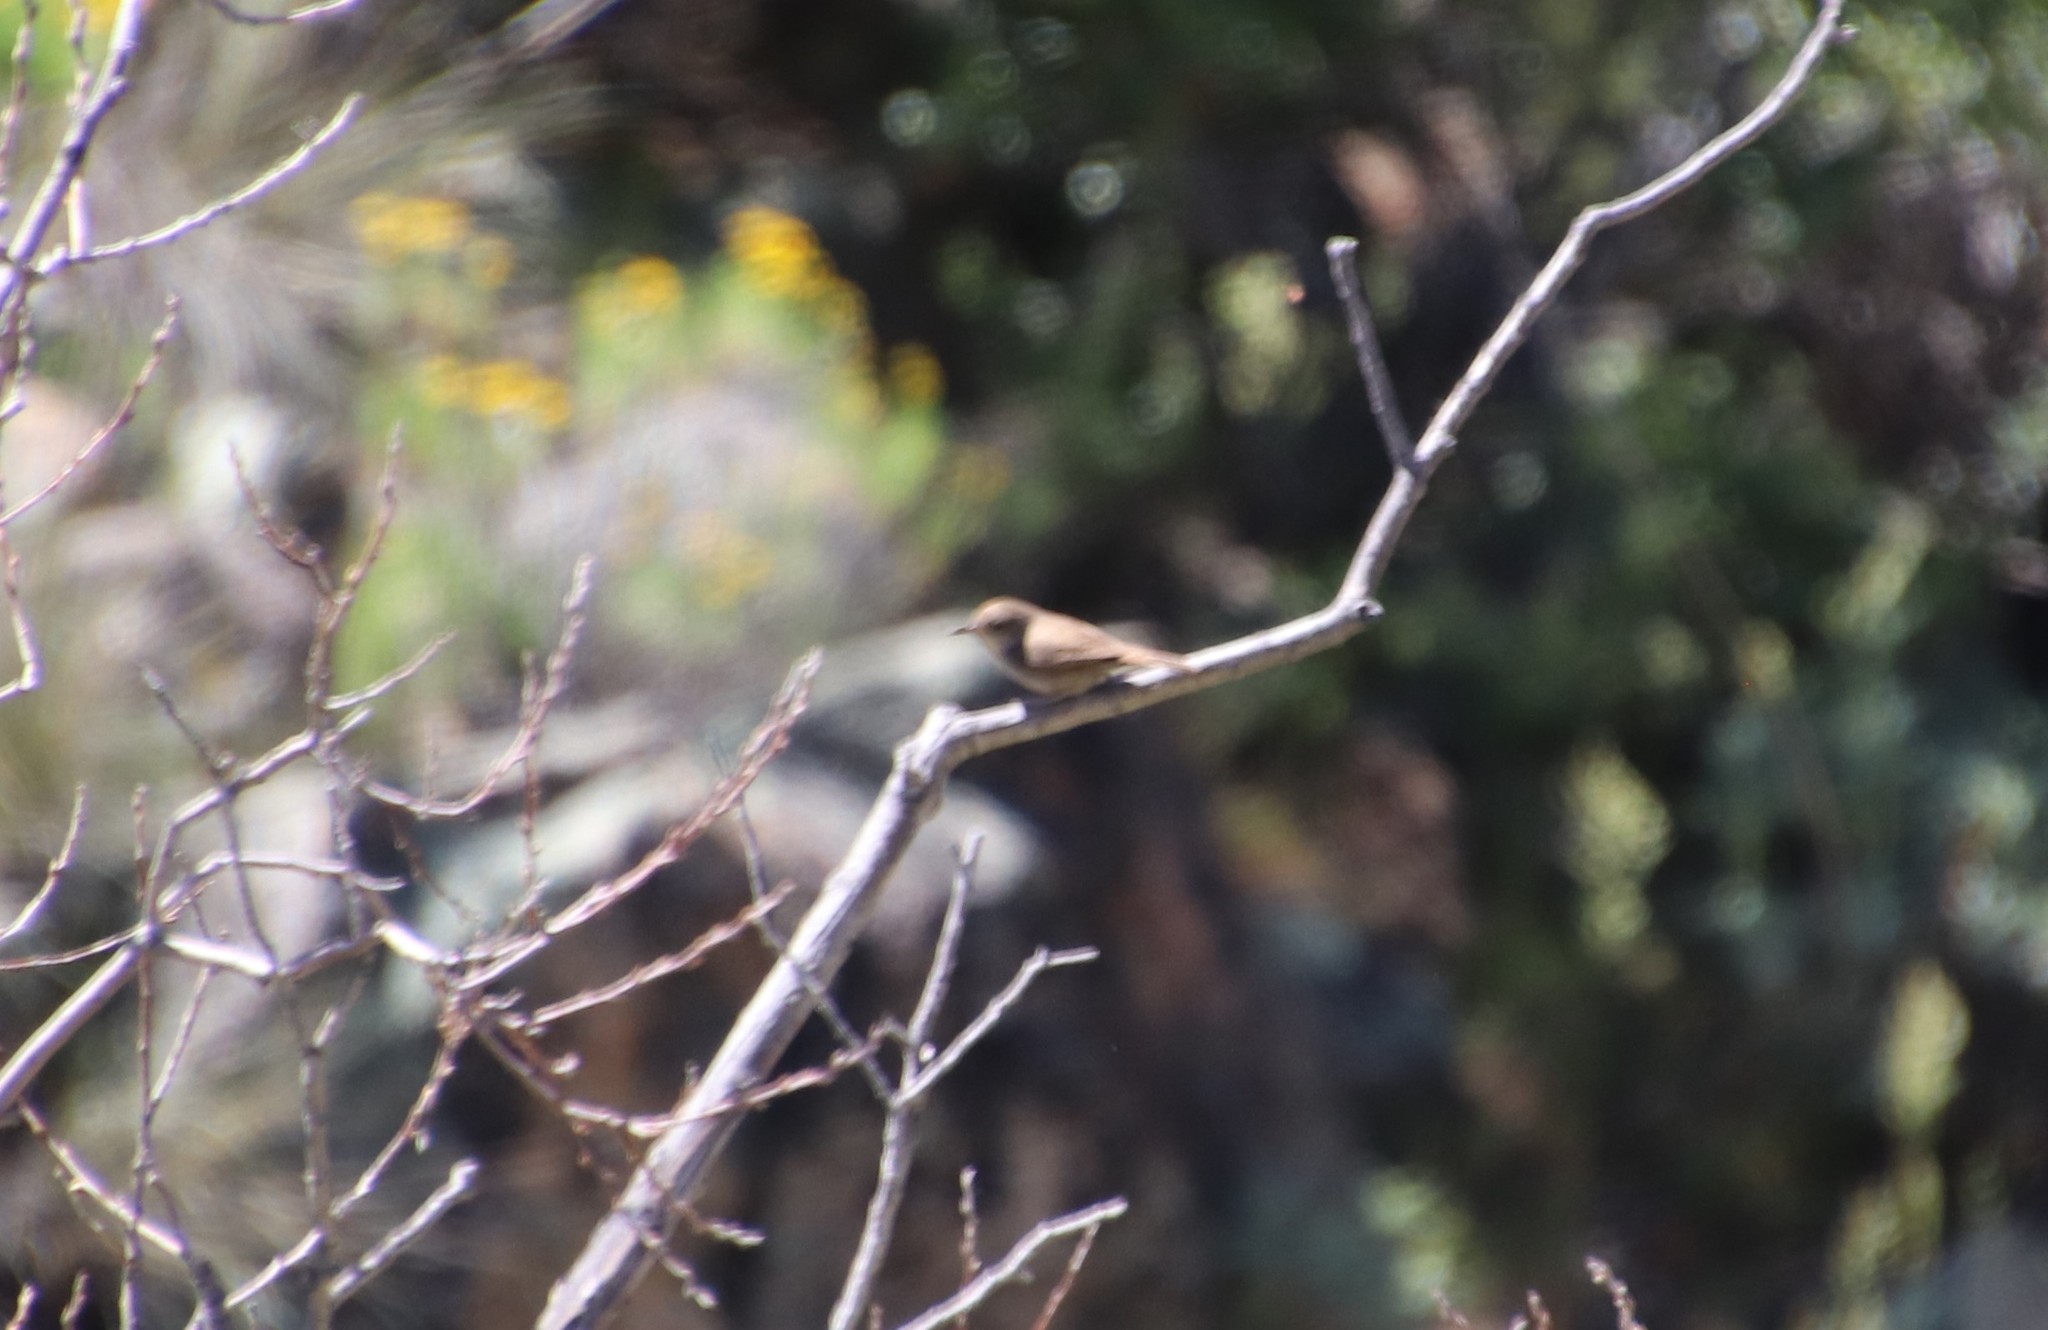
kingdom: Animalia
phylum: Chordata
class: Aves
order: Passeriformes
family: Troglodytidae
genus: Troglodytes
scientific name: Troglodytes aedon
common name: House wren
